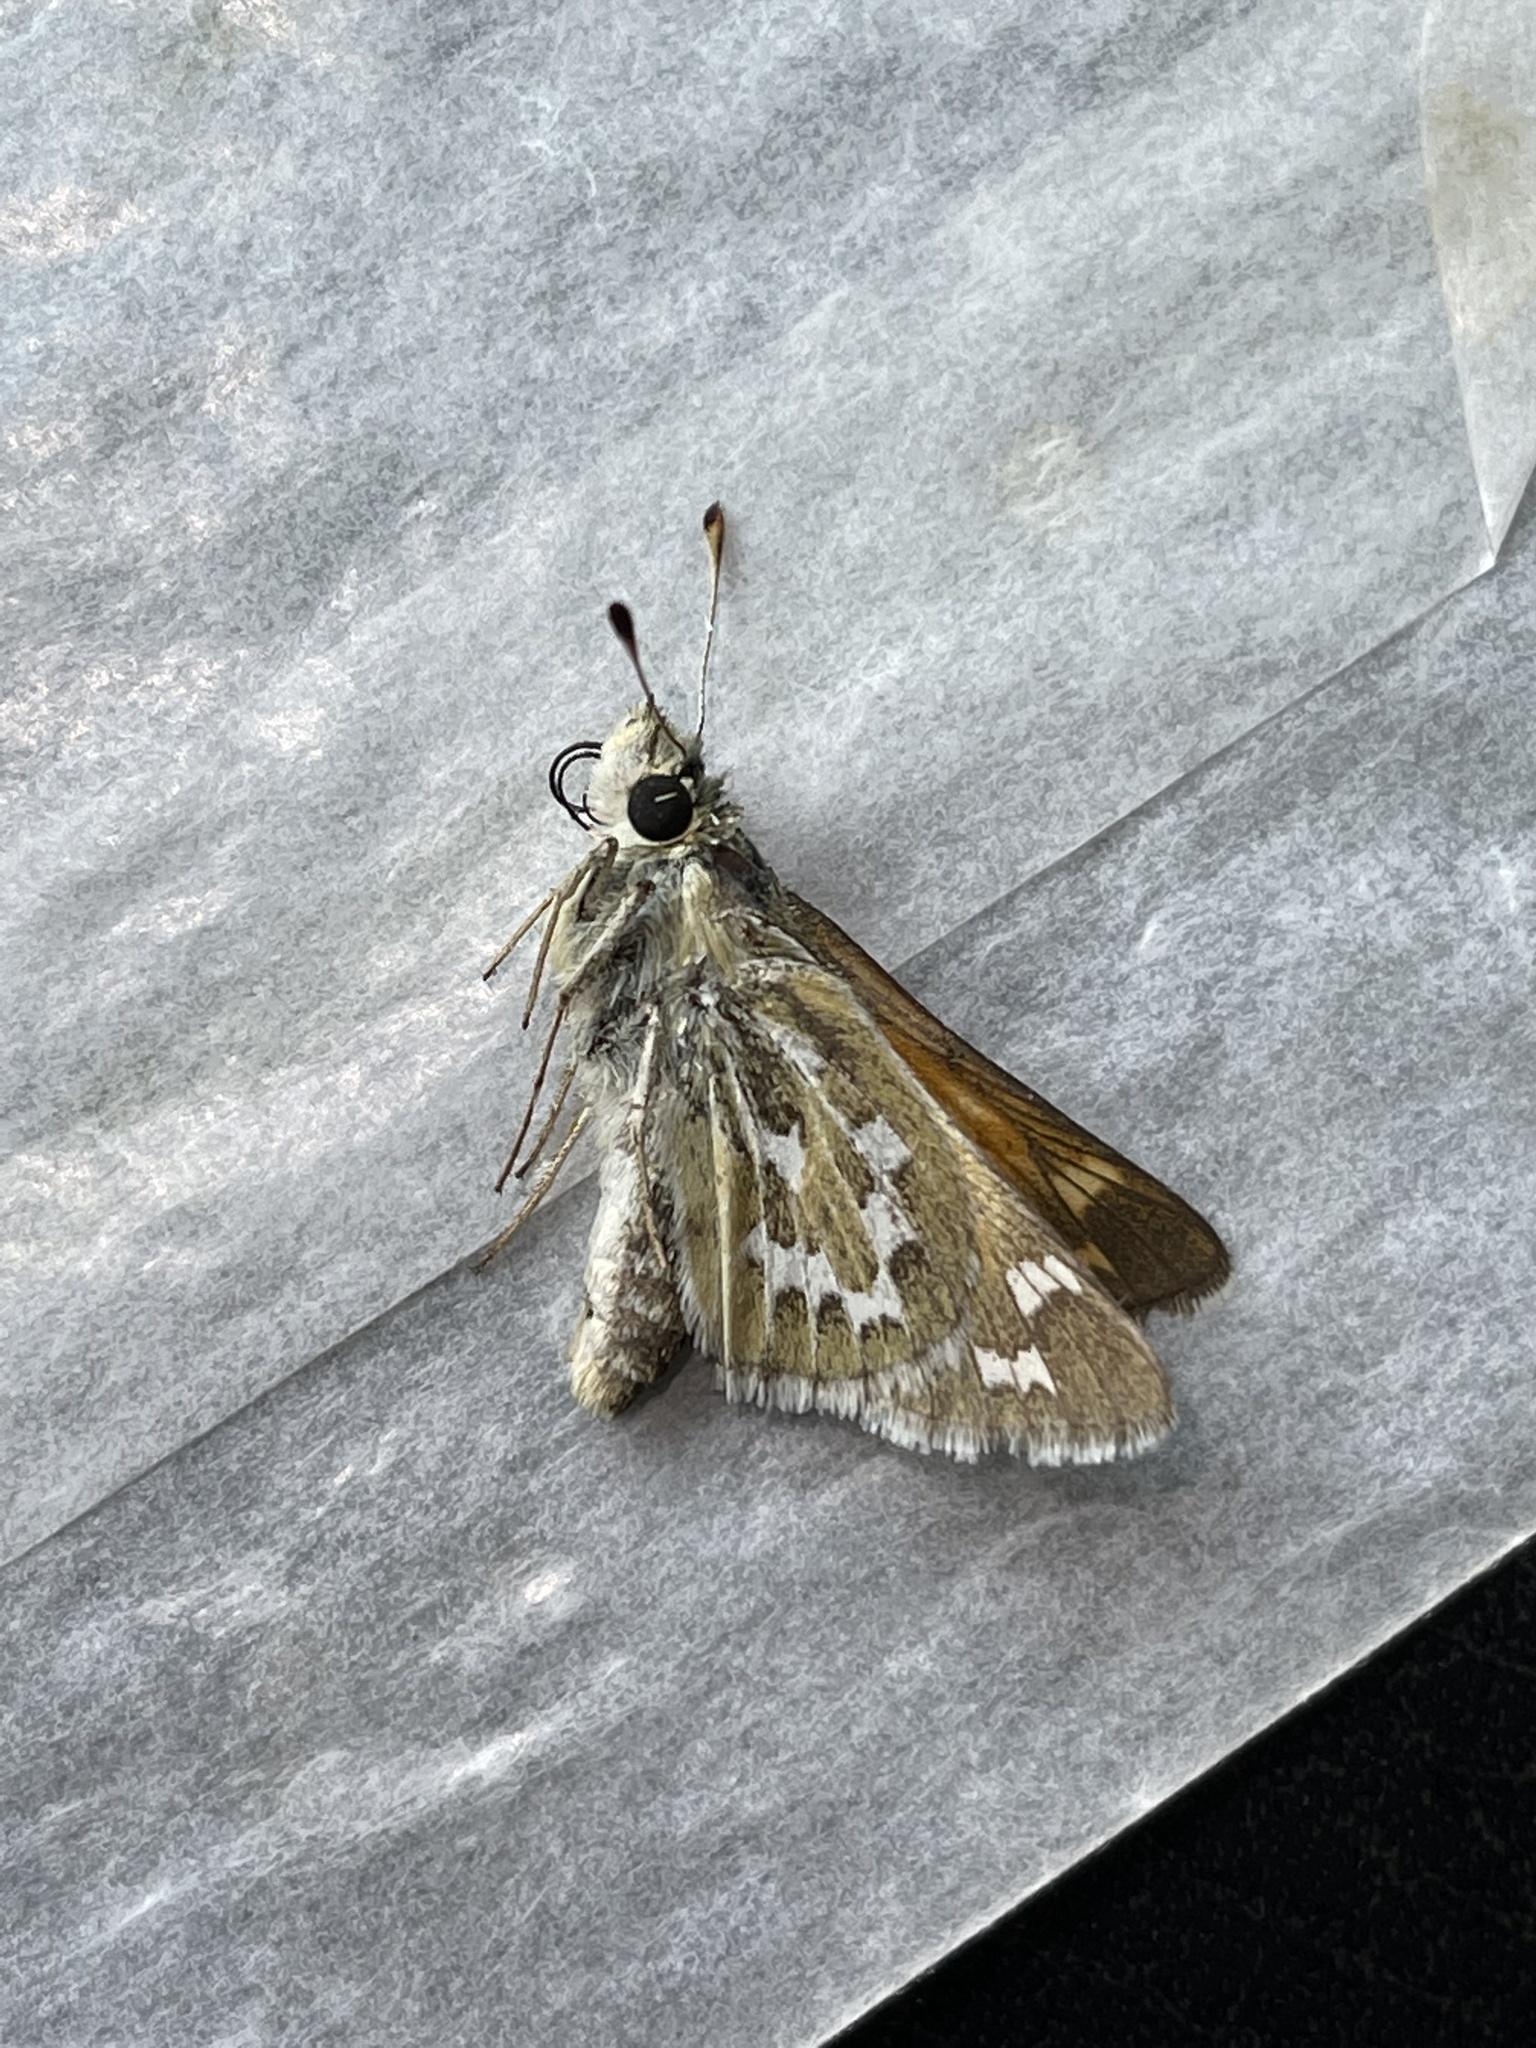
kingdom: Animalia
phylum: Arthropoda
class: Insecta
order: Lepidoptera
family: Hesperiidae
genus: Hesperia
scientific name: Hesperia uncas
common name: Uncas skipper
